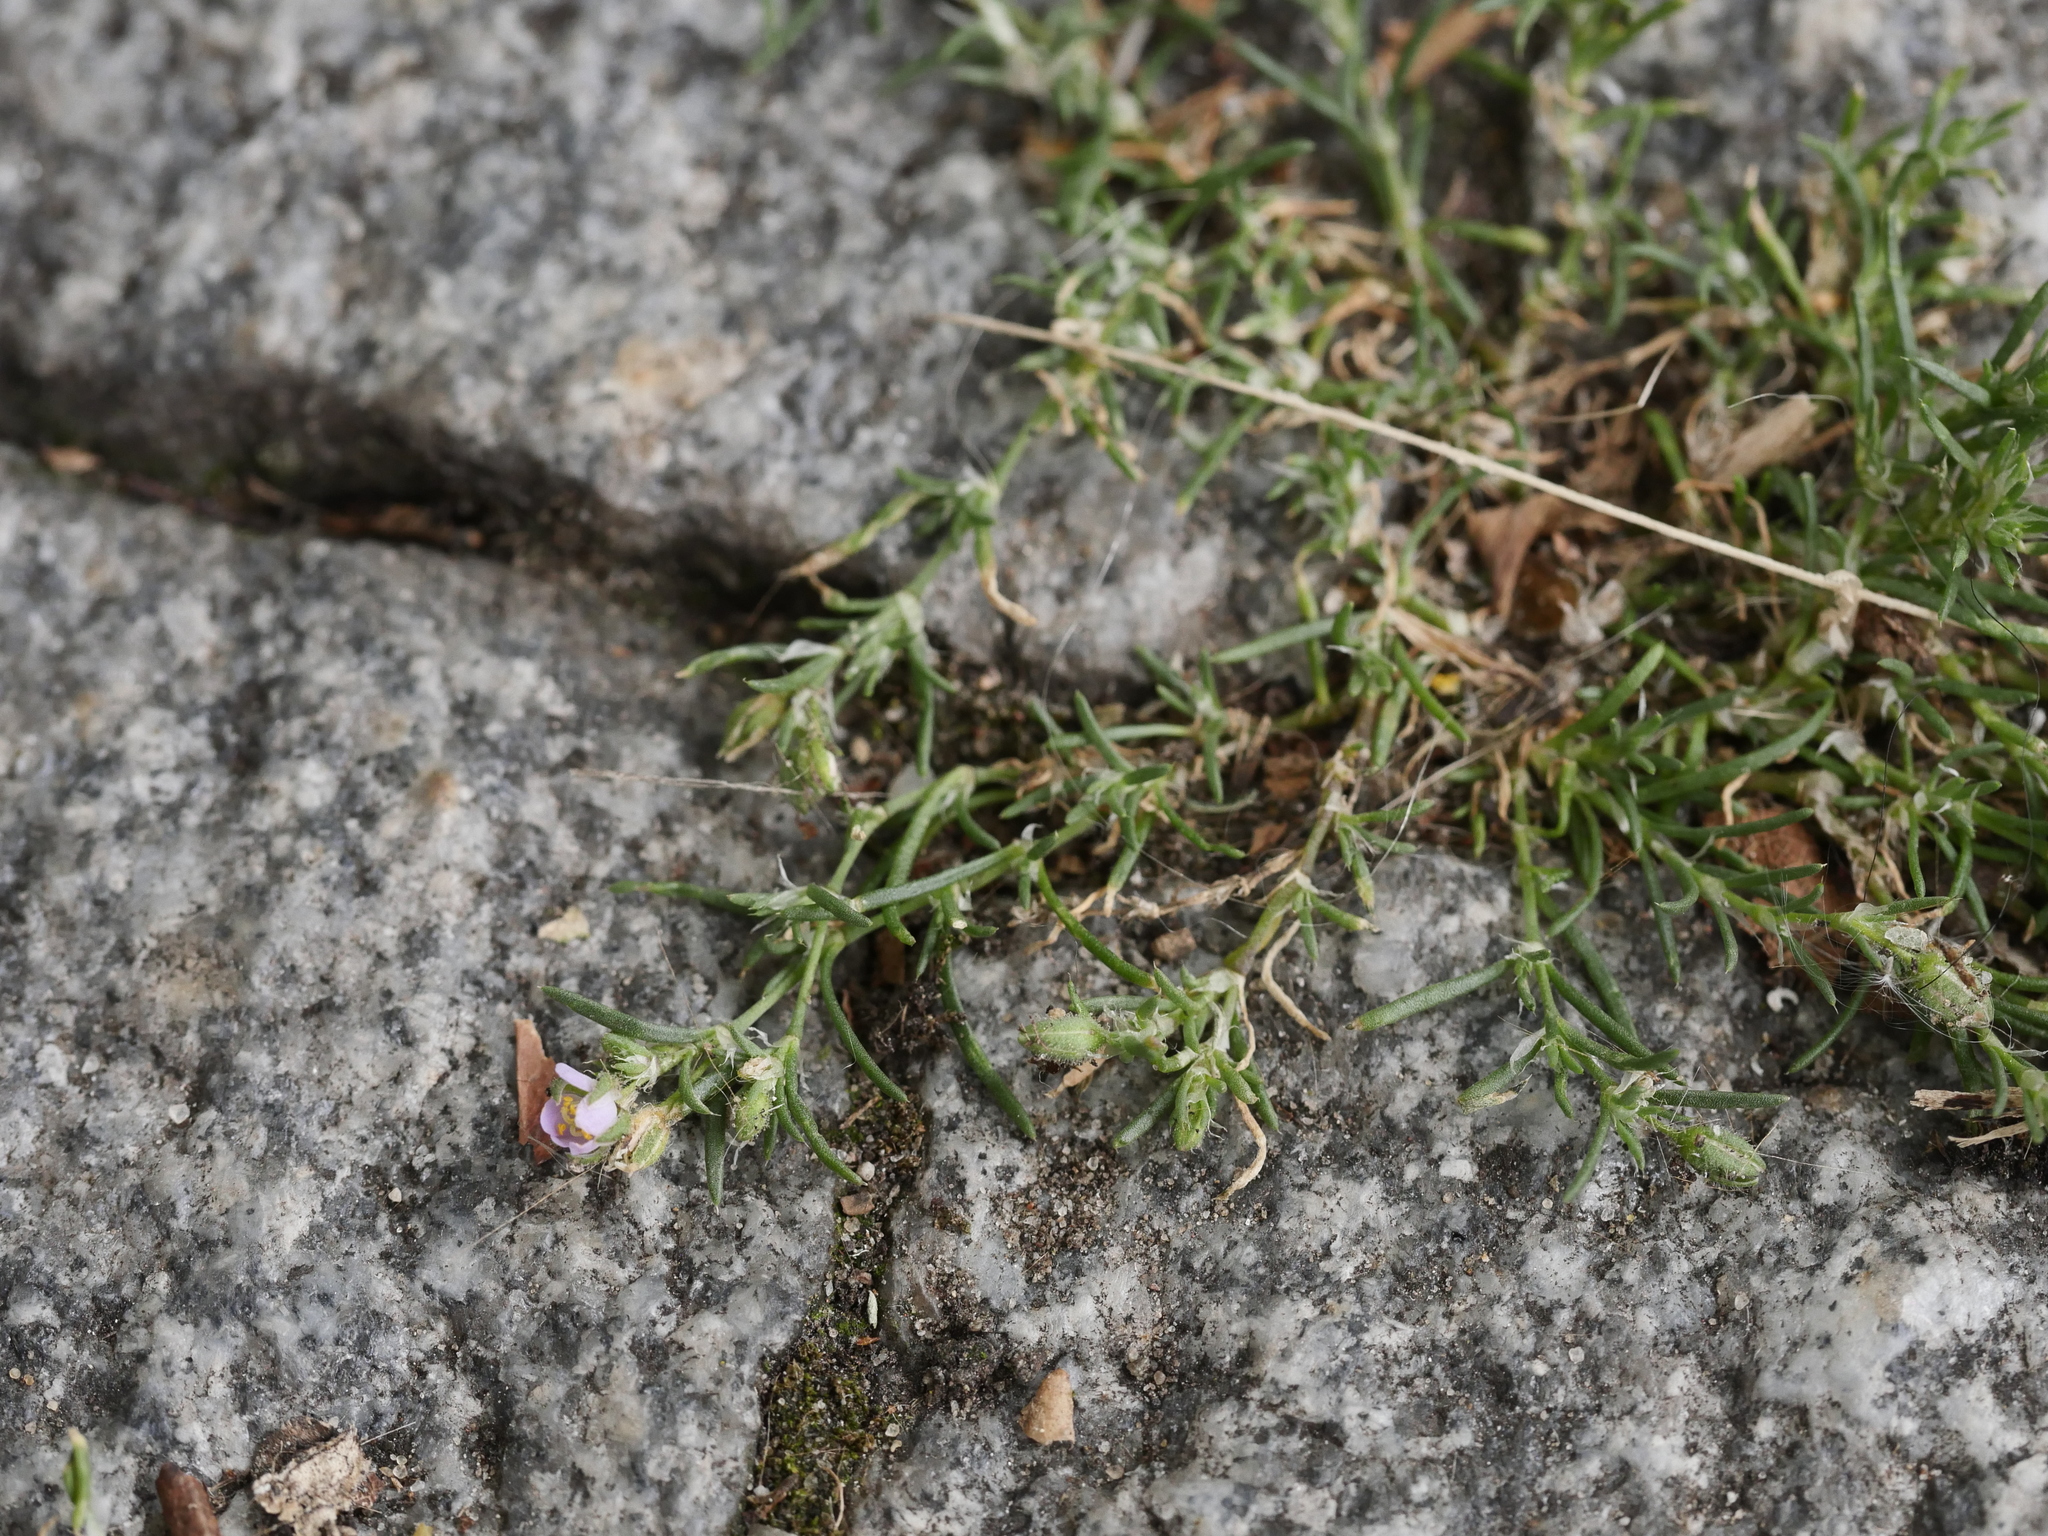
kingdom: Plantae
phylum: Tracheophyta
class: Magnoliopsida
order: Caryophyllales
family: Caryophyllaceae
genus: Spergularia
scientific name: Spergularia rubra
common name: Red sand-spurrey
